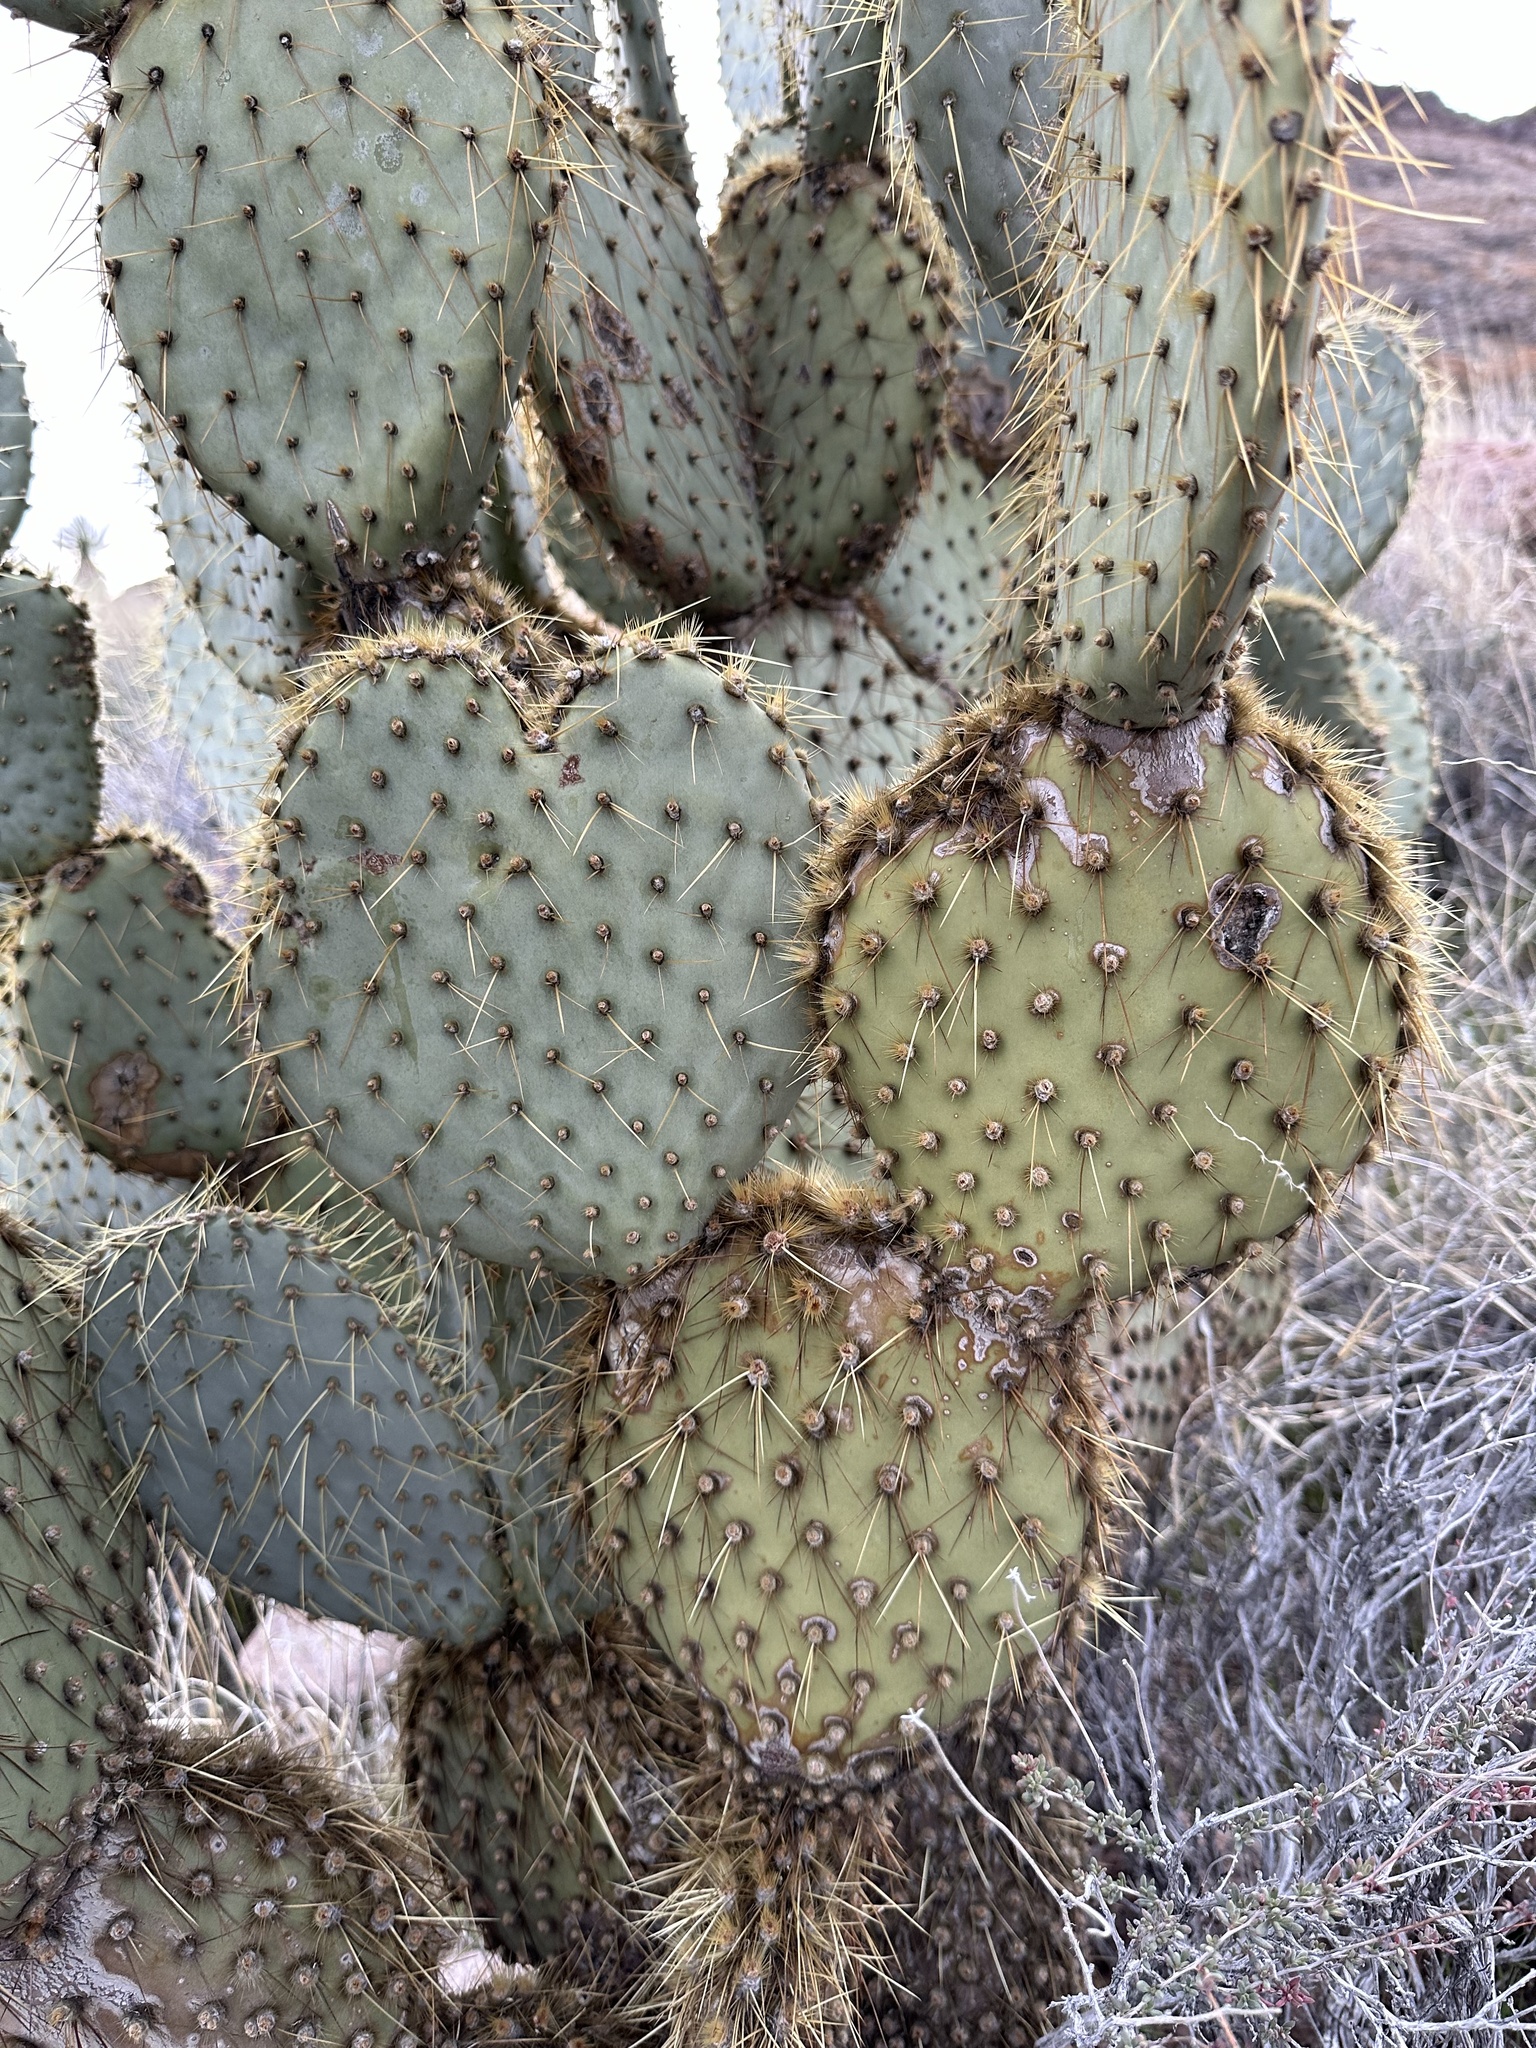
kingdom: Plantae
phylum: Tracheophyta
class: Magnoliopsida
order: Caryophyllales
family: Cactaceae
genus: Opuntia
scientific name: Opuntia chlorotica
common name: Dollar-joint prickly-pear
